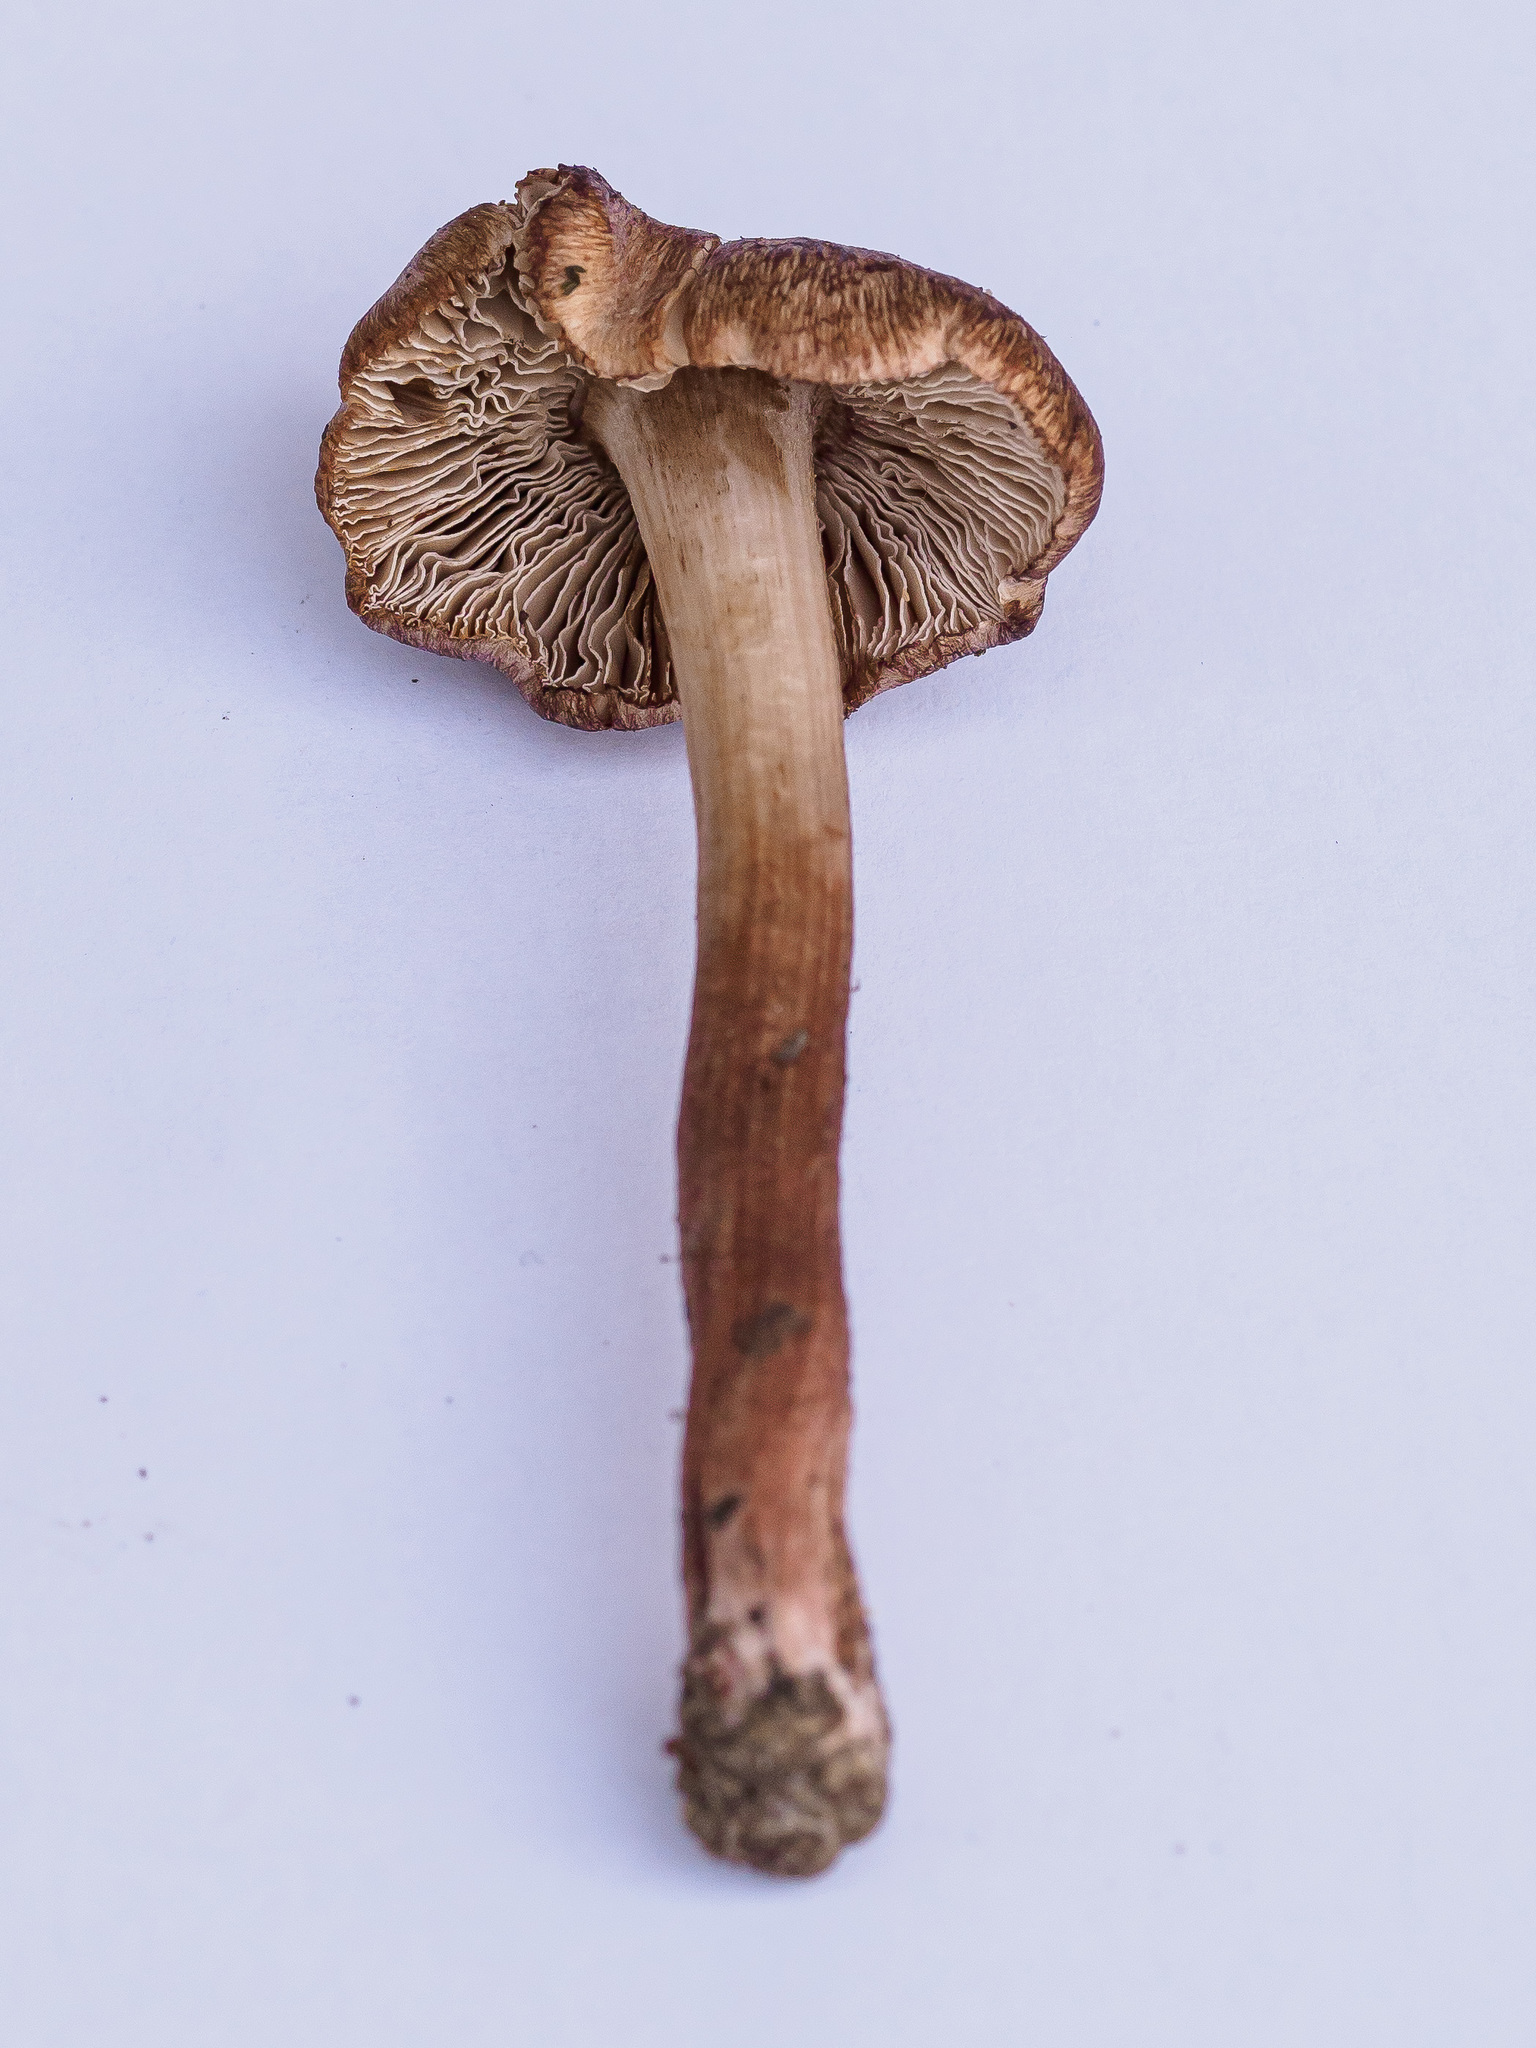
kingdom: Fungi
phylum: Basidiomycota
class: Agaricomycetes
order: Agaricales
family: Inocybaceae
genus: Inosperma
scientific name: Inosperma adaequatum
